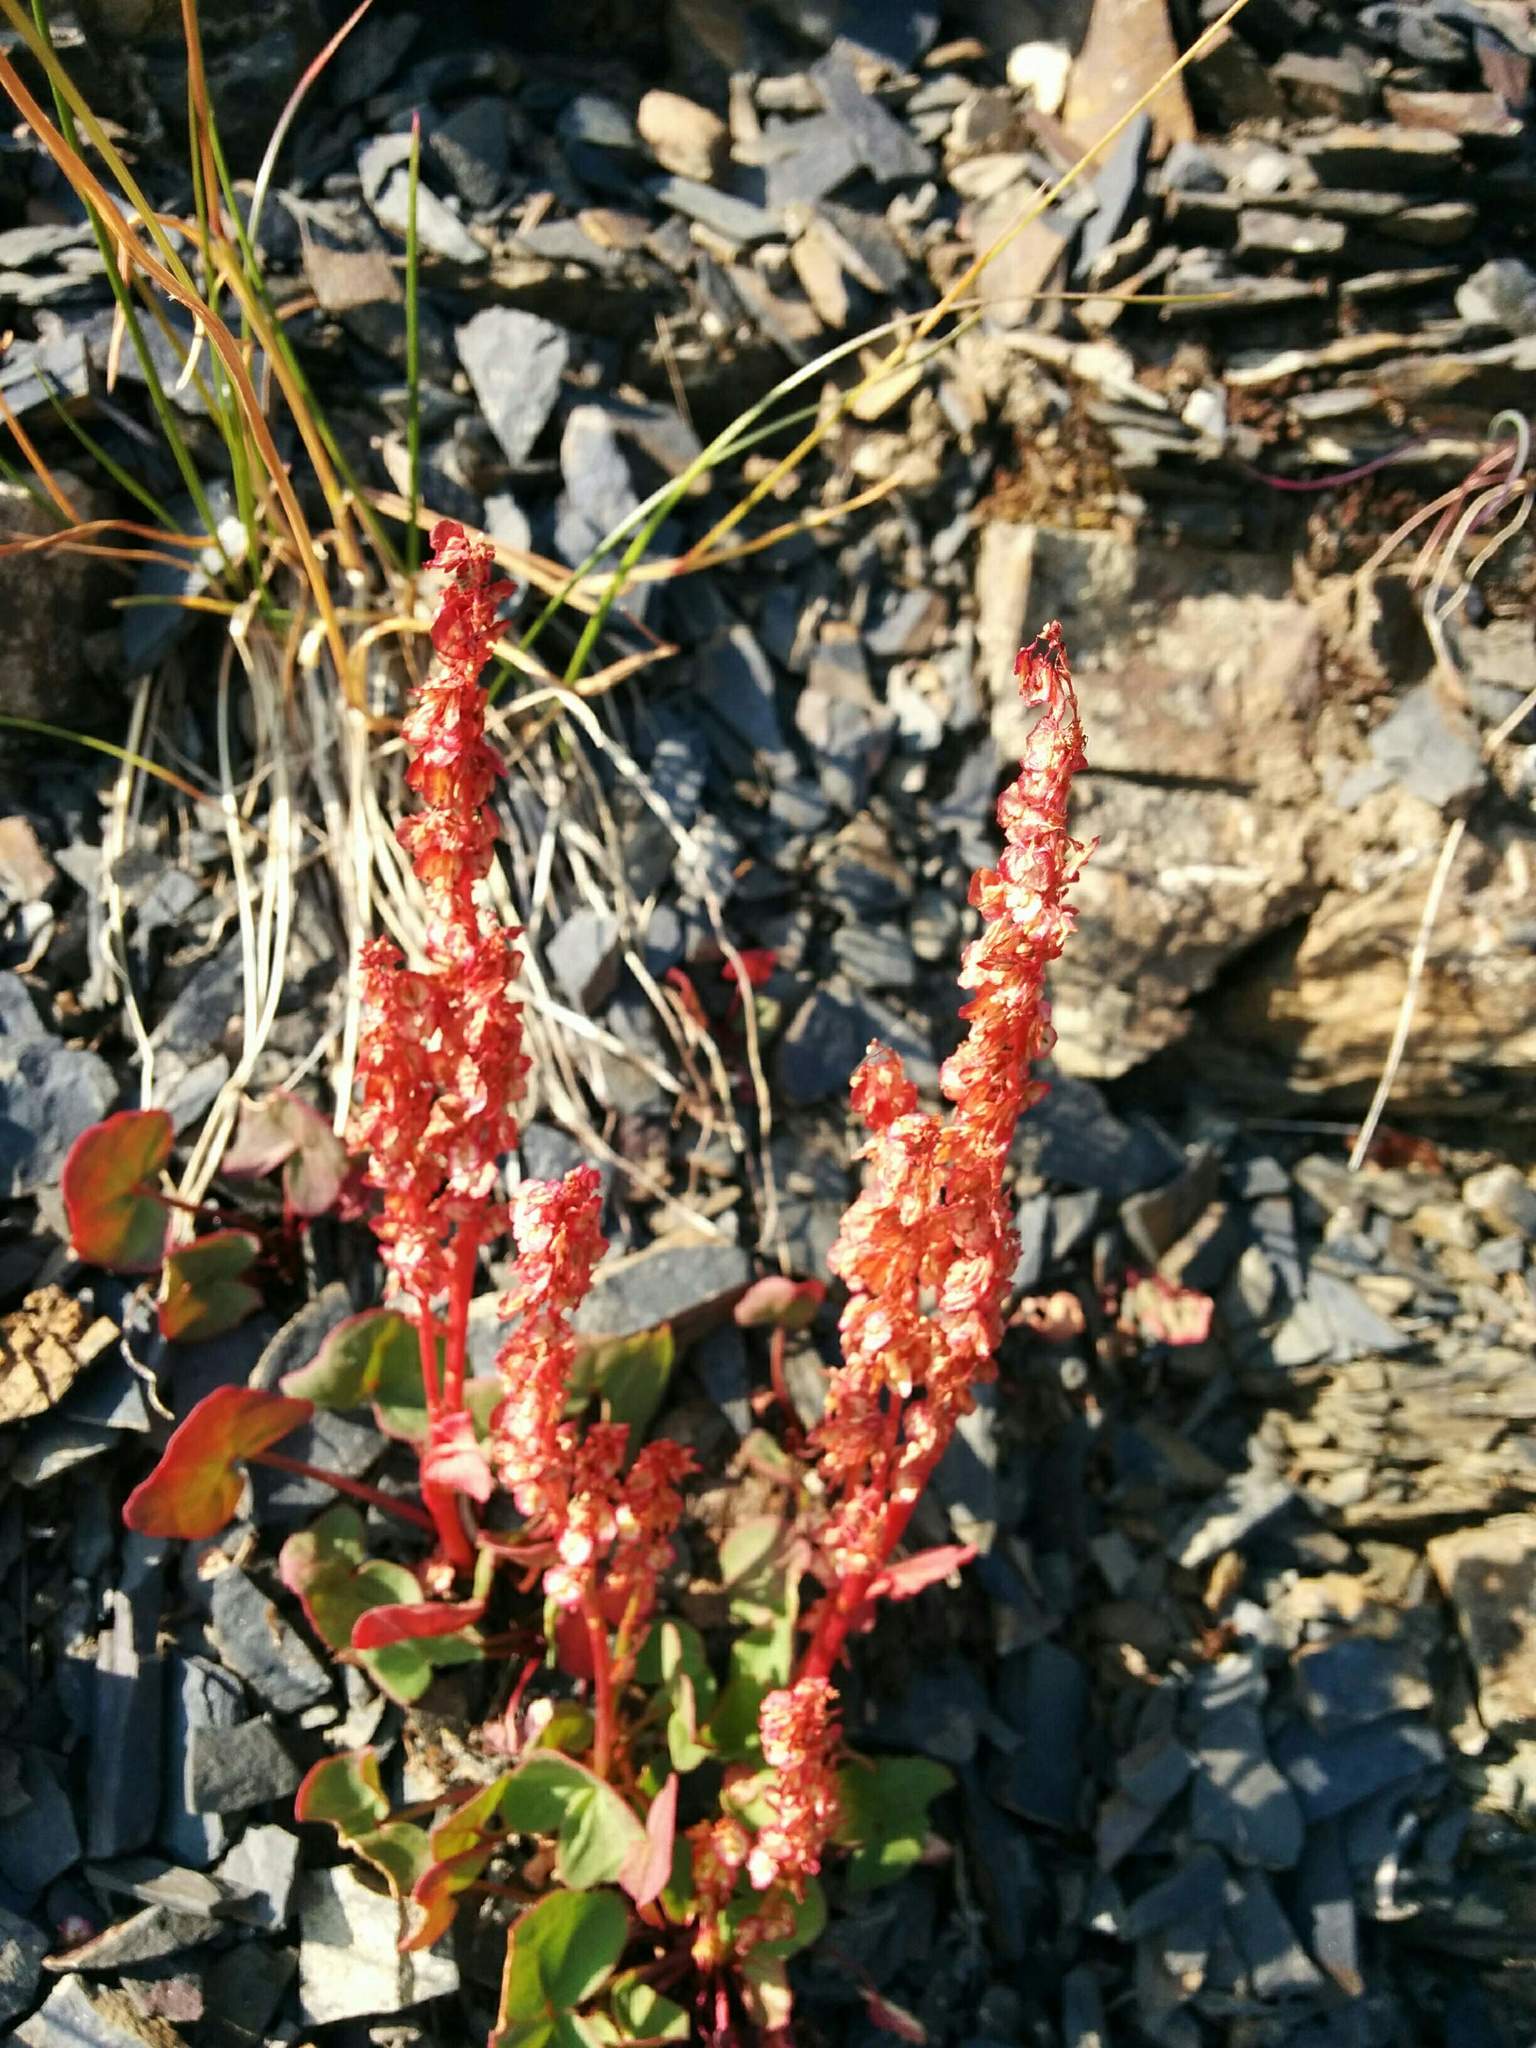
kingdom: Plantae
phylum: Tracheophyta
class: Magnoliopsida
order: Caryophyllales
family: Polygonaceae
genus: Oxyria
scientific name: Oxyria digyna
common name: Alpine mountain-sorrel
